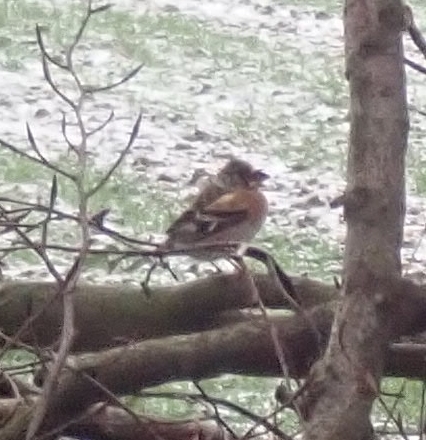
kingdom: Animalia
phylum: Chordata
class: Aves
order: Passeriformes
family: Fringillidae
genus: Fringilla
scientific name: Fringilla montifringilla
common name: Brambling
